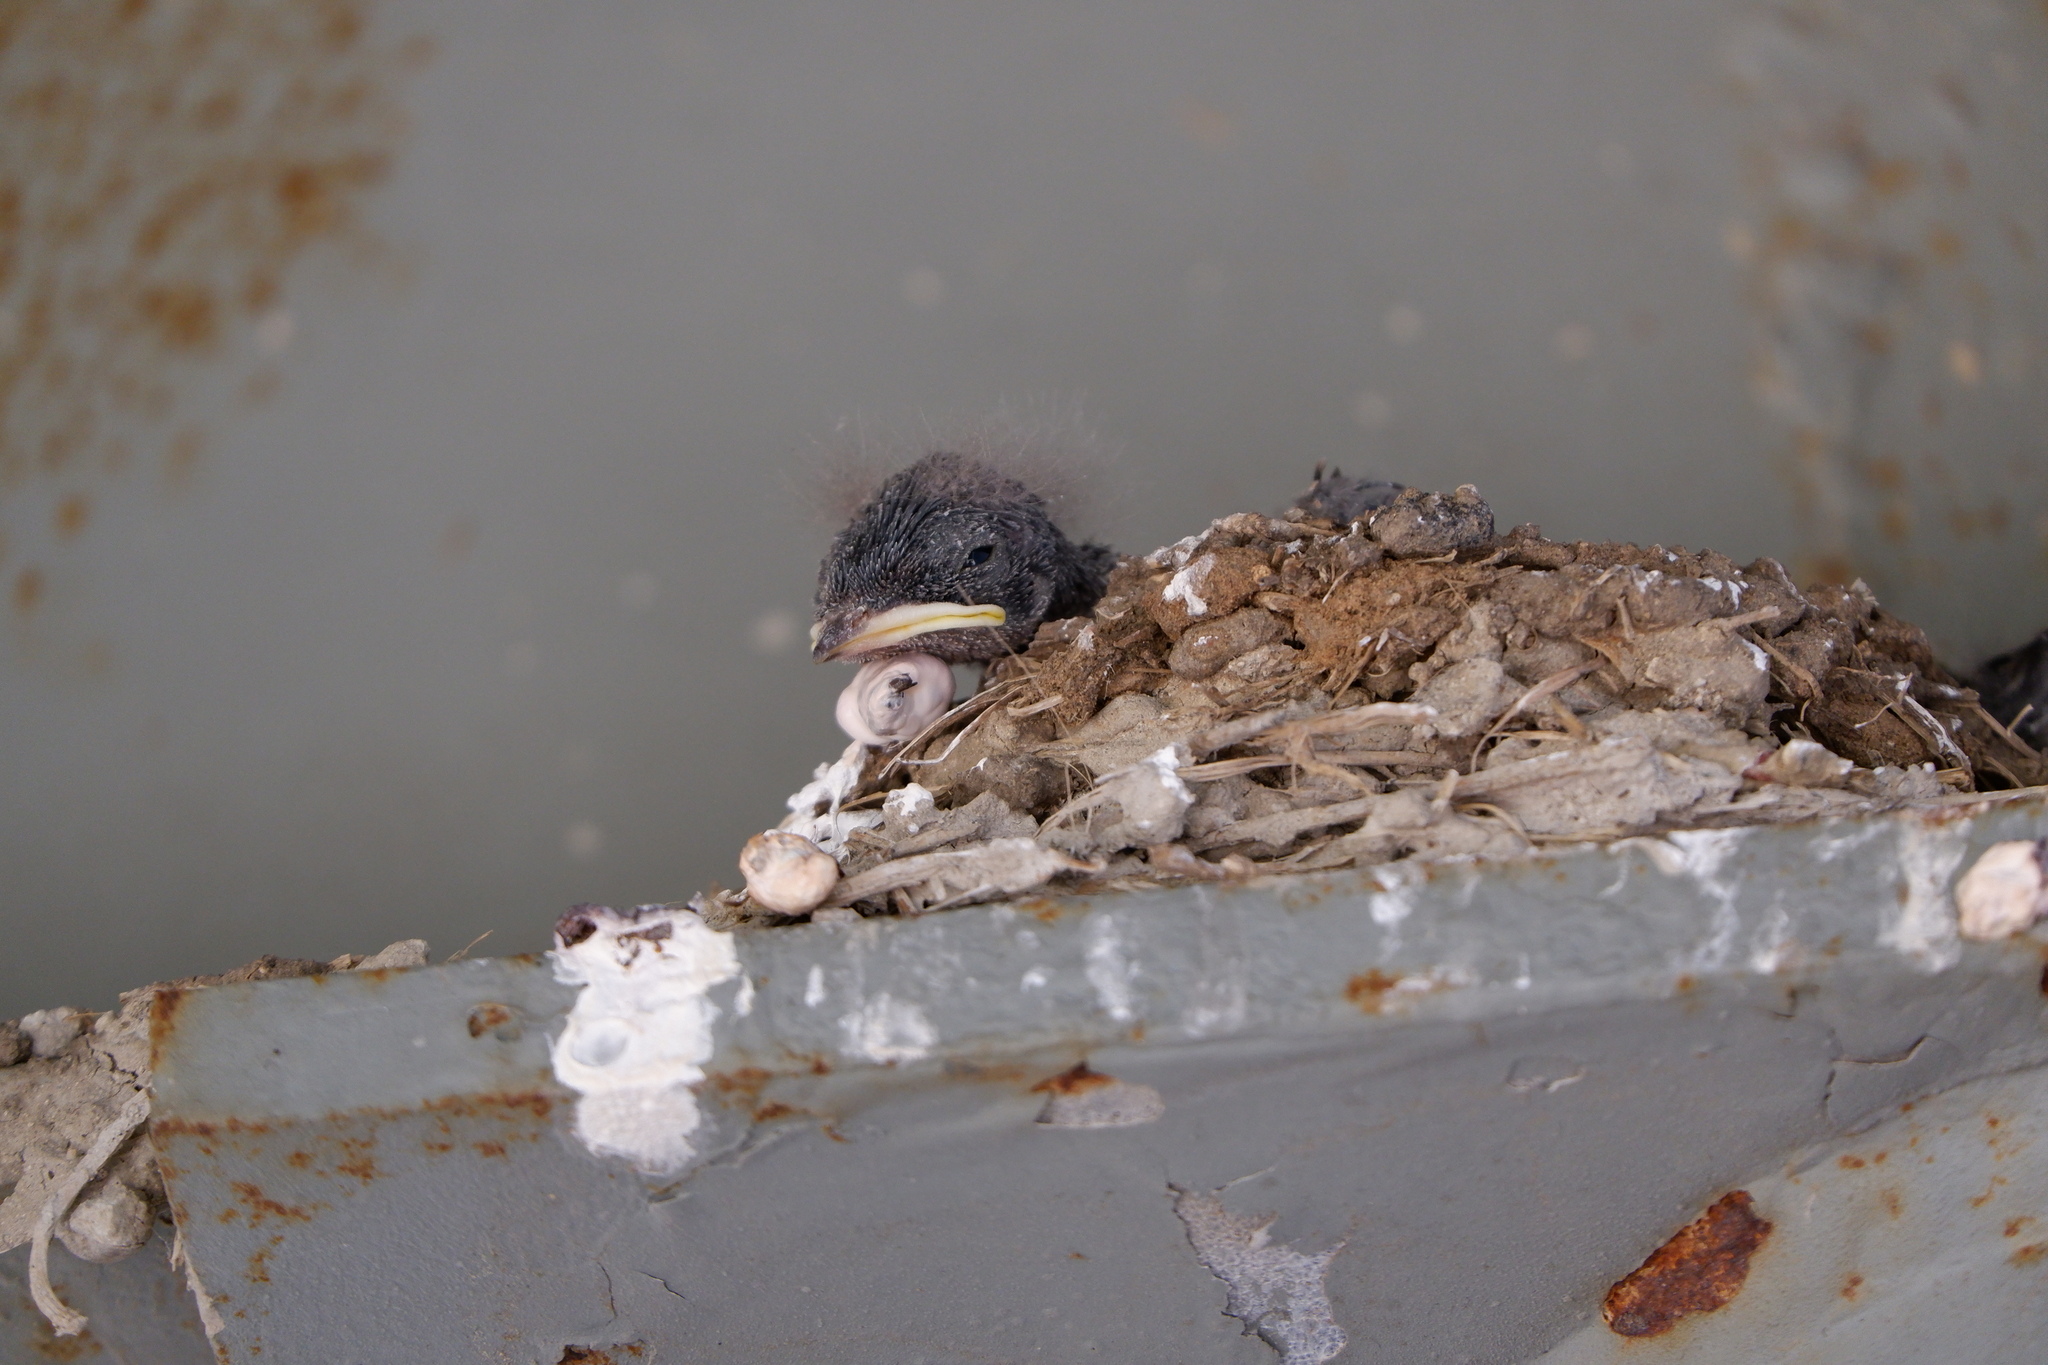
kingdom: Animalia
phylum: Chordata
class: Aves
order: Passeriformes
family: Hirundinidae
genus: Hirundo
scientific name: Hirundo rustica
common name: Barn swallow
